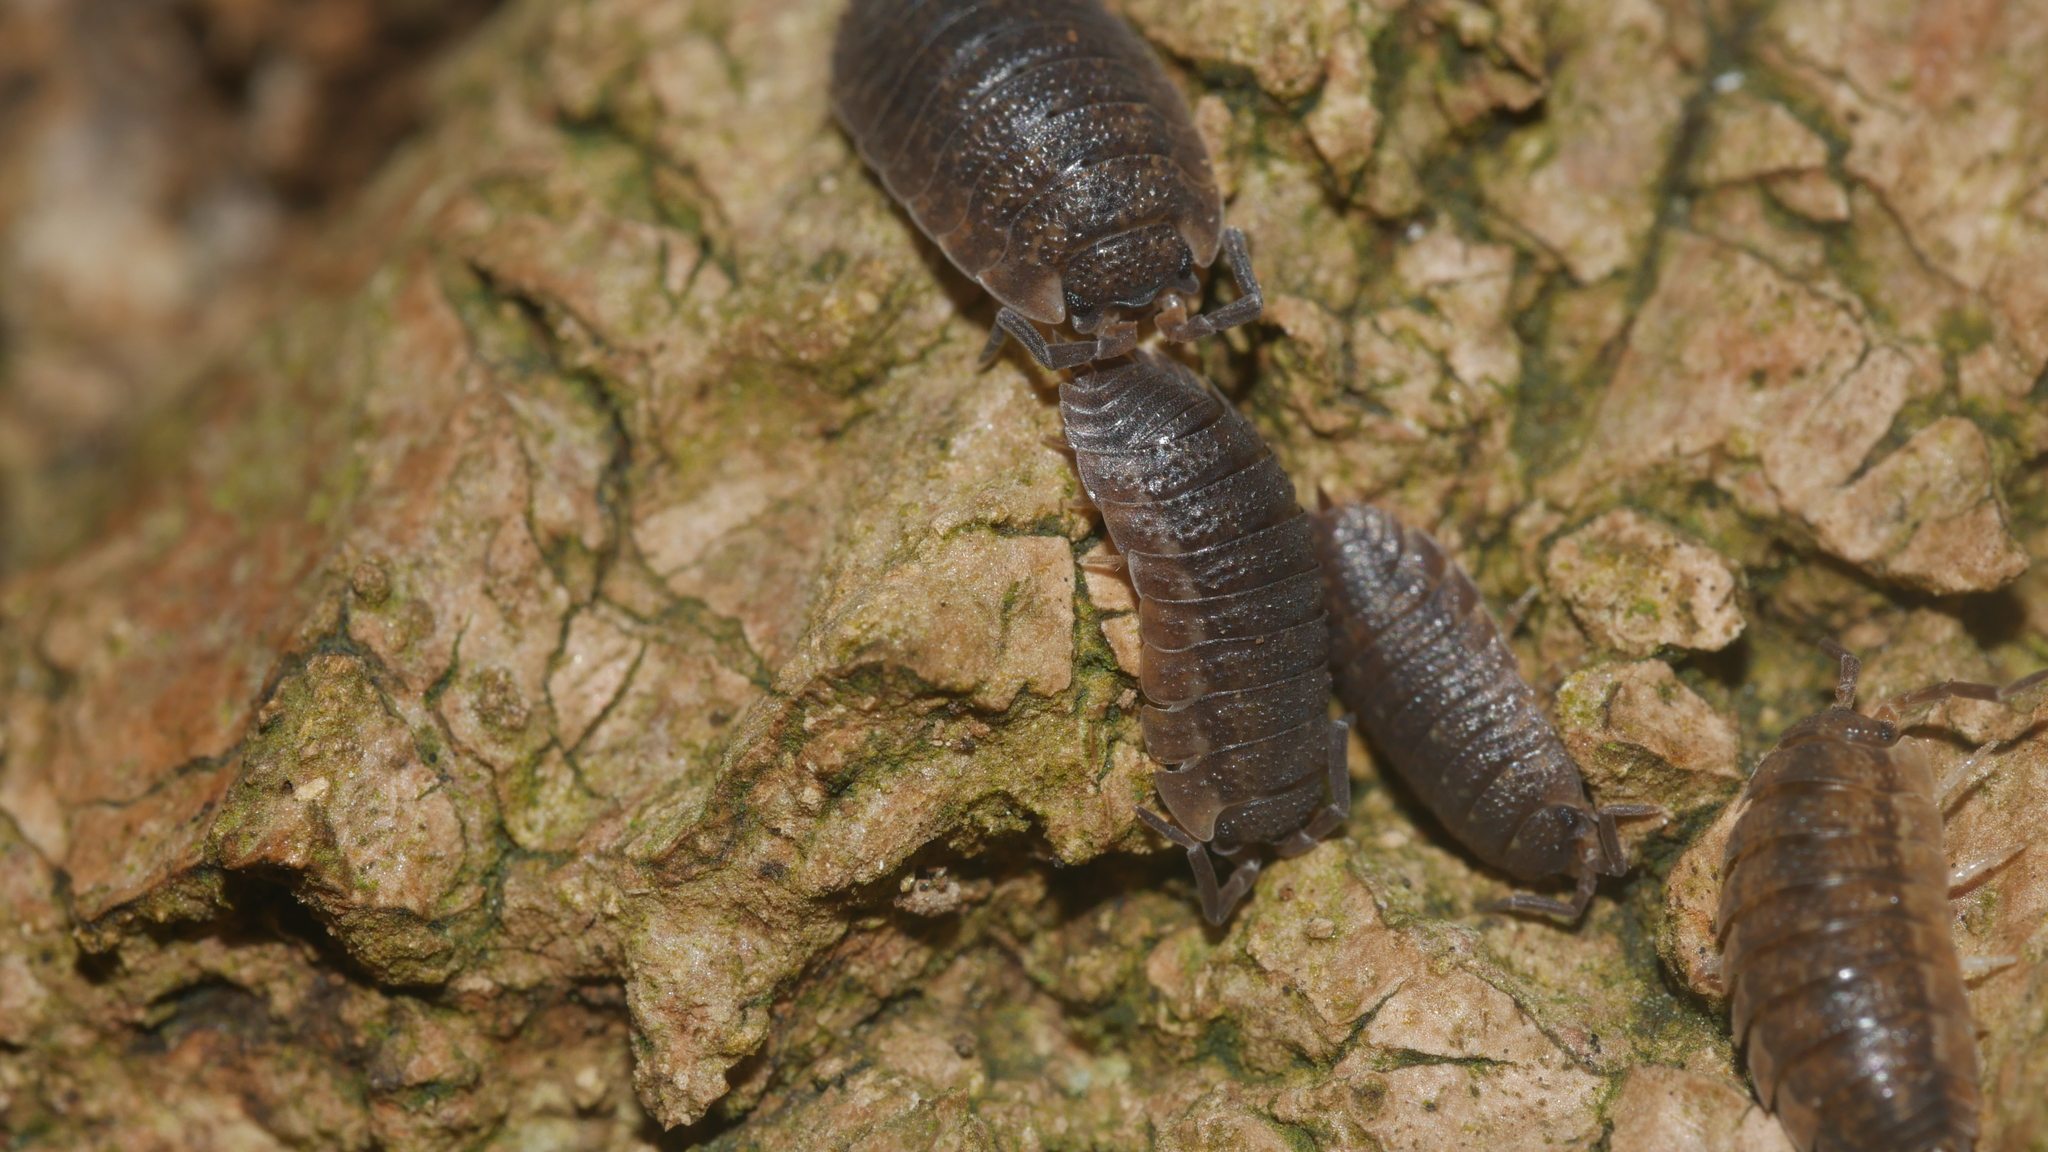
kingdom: Animalia
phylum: Arthropoda
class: Malacostraca
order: Isopoda
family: Porcellionidae
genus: Porcellio
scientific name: Porcellio scaber
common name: Common rough woodlouse
